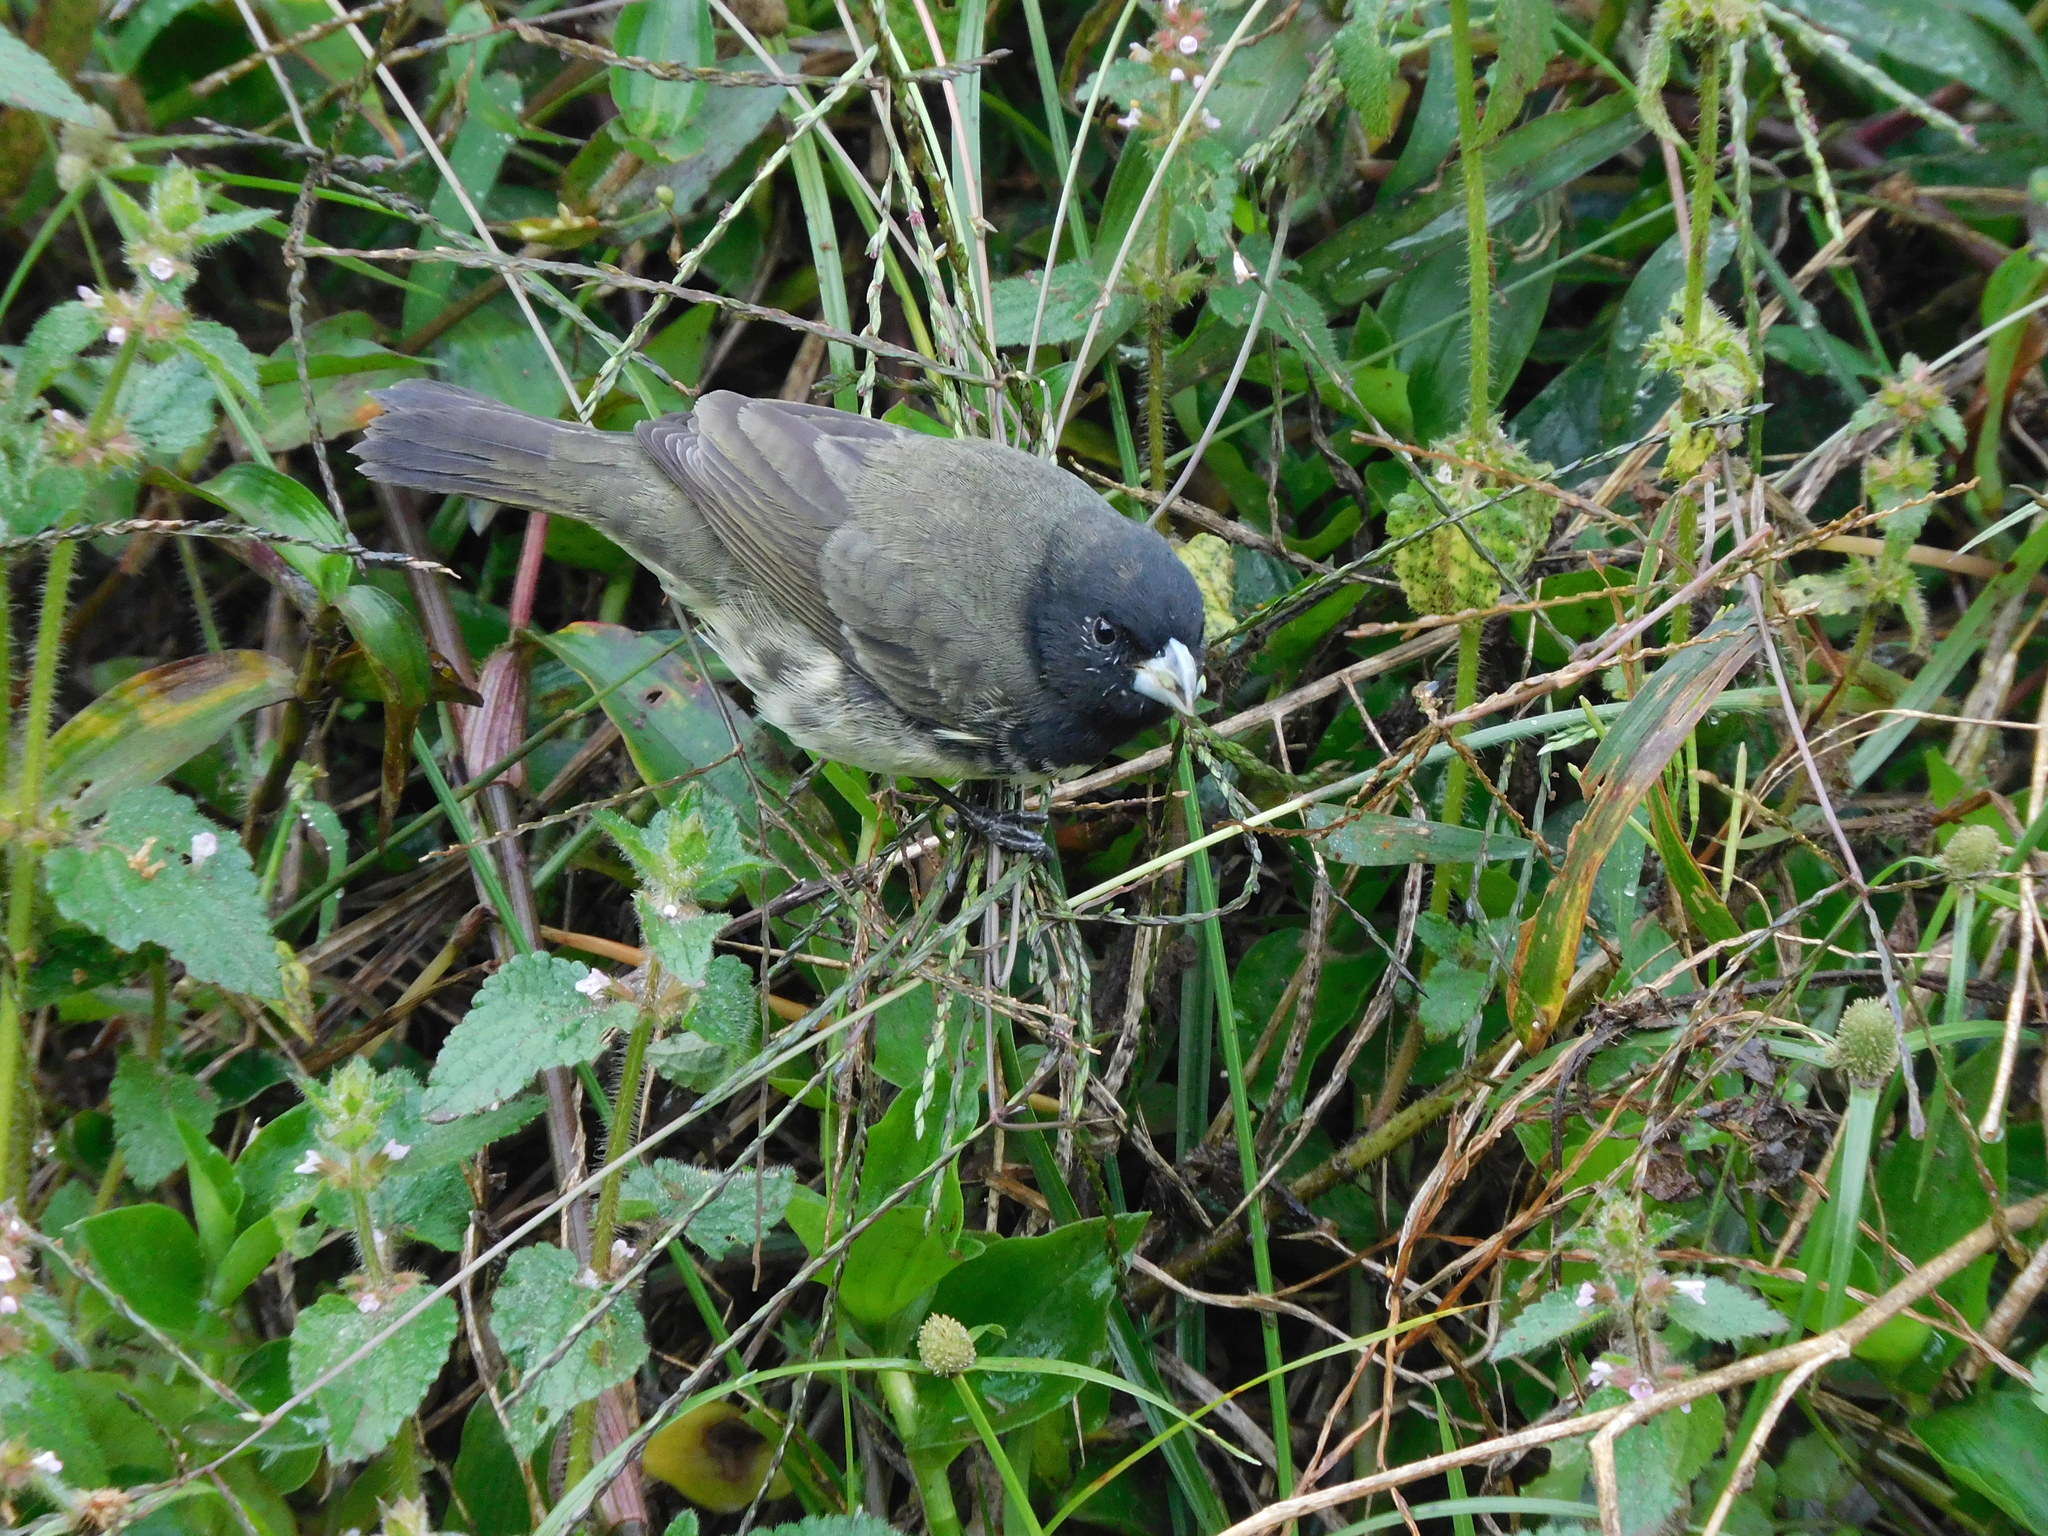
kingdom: Animalia
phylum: Chordata
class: Aves
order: Passeriformes
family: Thraupidae
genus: Sporophila
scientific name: Sporophila nigricollis
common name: Yellow-bellied seedeater
